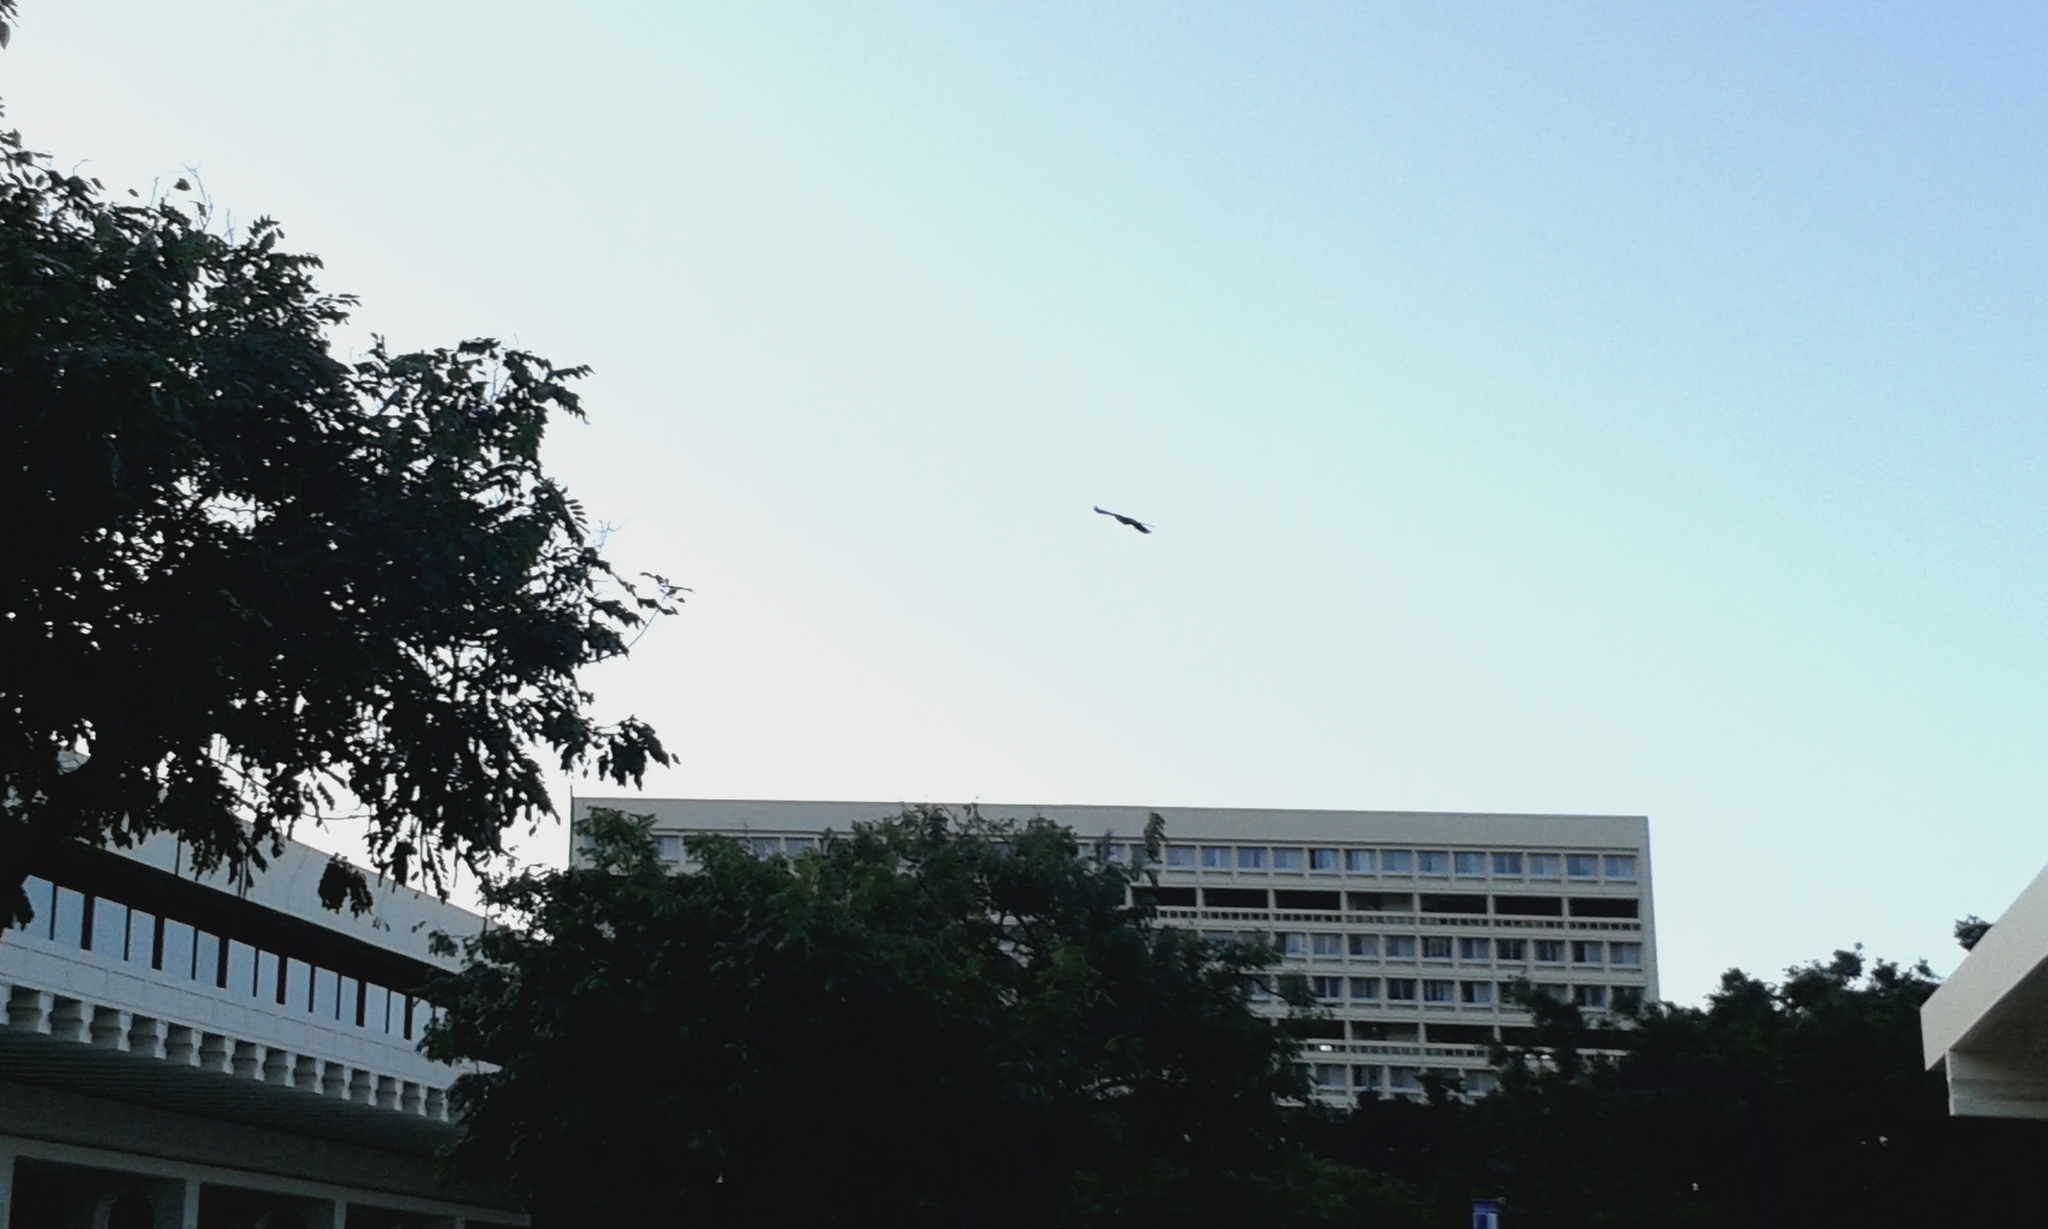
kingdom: Animalia
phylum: Chordata
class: Aves
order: Psittaciformes
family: Psittacidae
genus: Psittacula
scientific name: Psittacula krameri
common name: Rose-ringed parakeet
